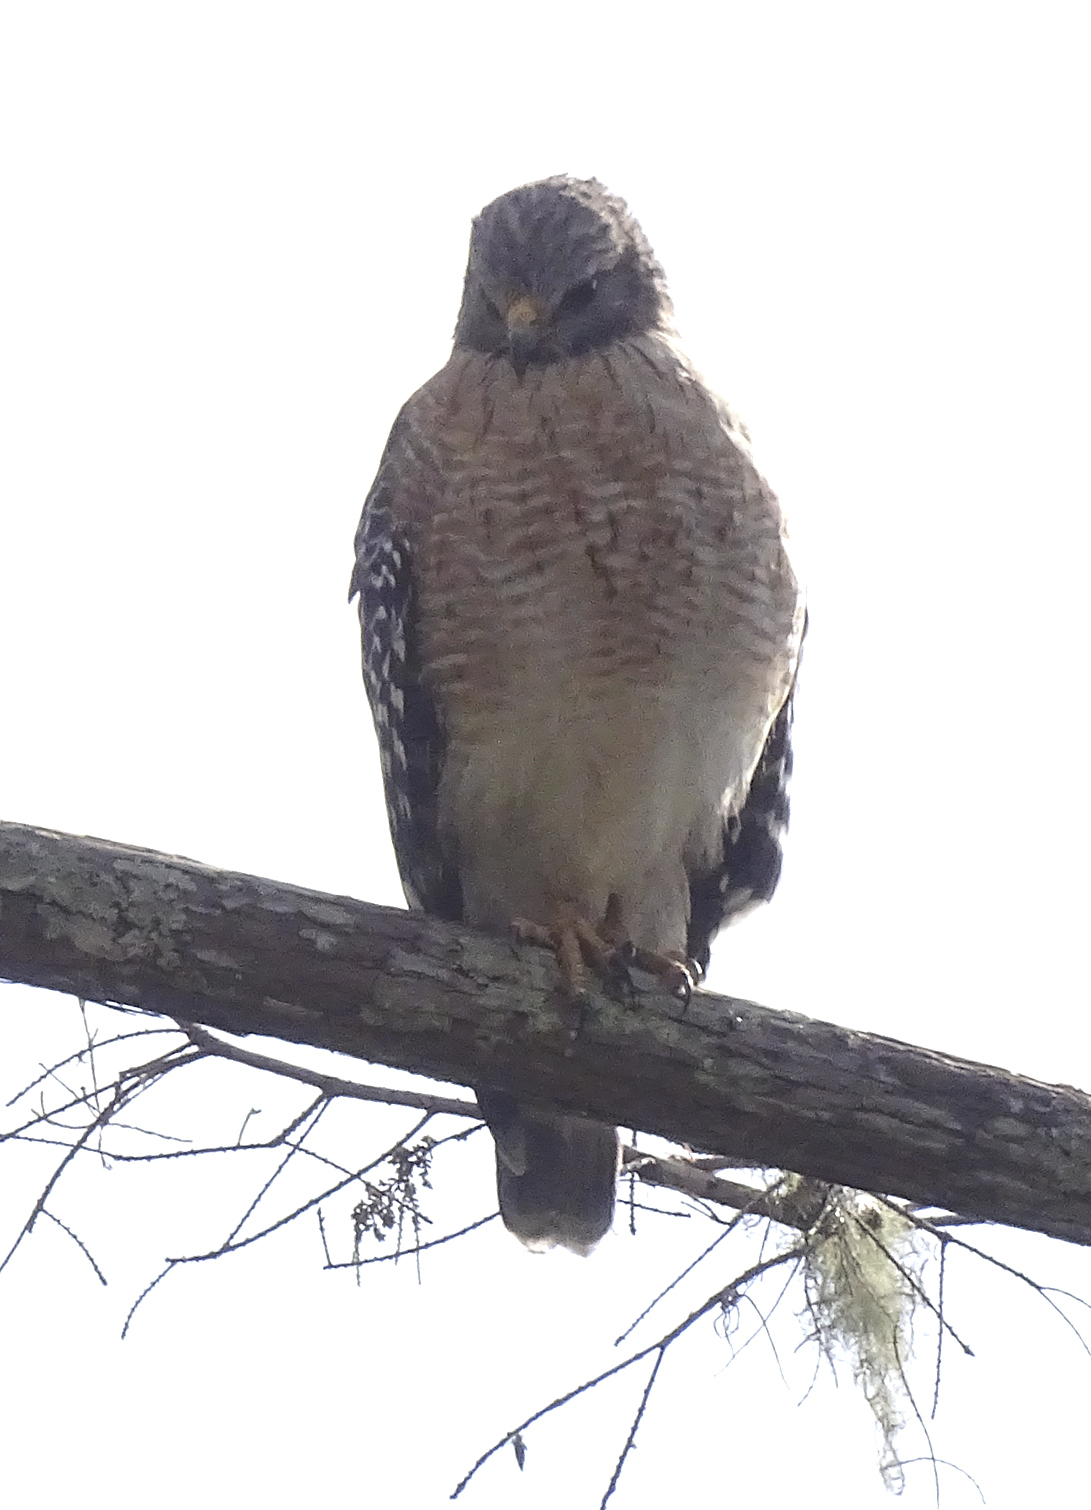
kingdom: Animalia
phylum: Chordata
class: Aves
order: Accipitriformes
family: Accipitridae
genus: Buteo
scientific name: Buteo lineatus
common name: Red-shouldered hawk
